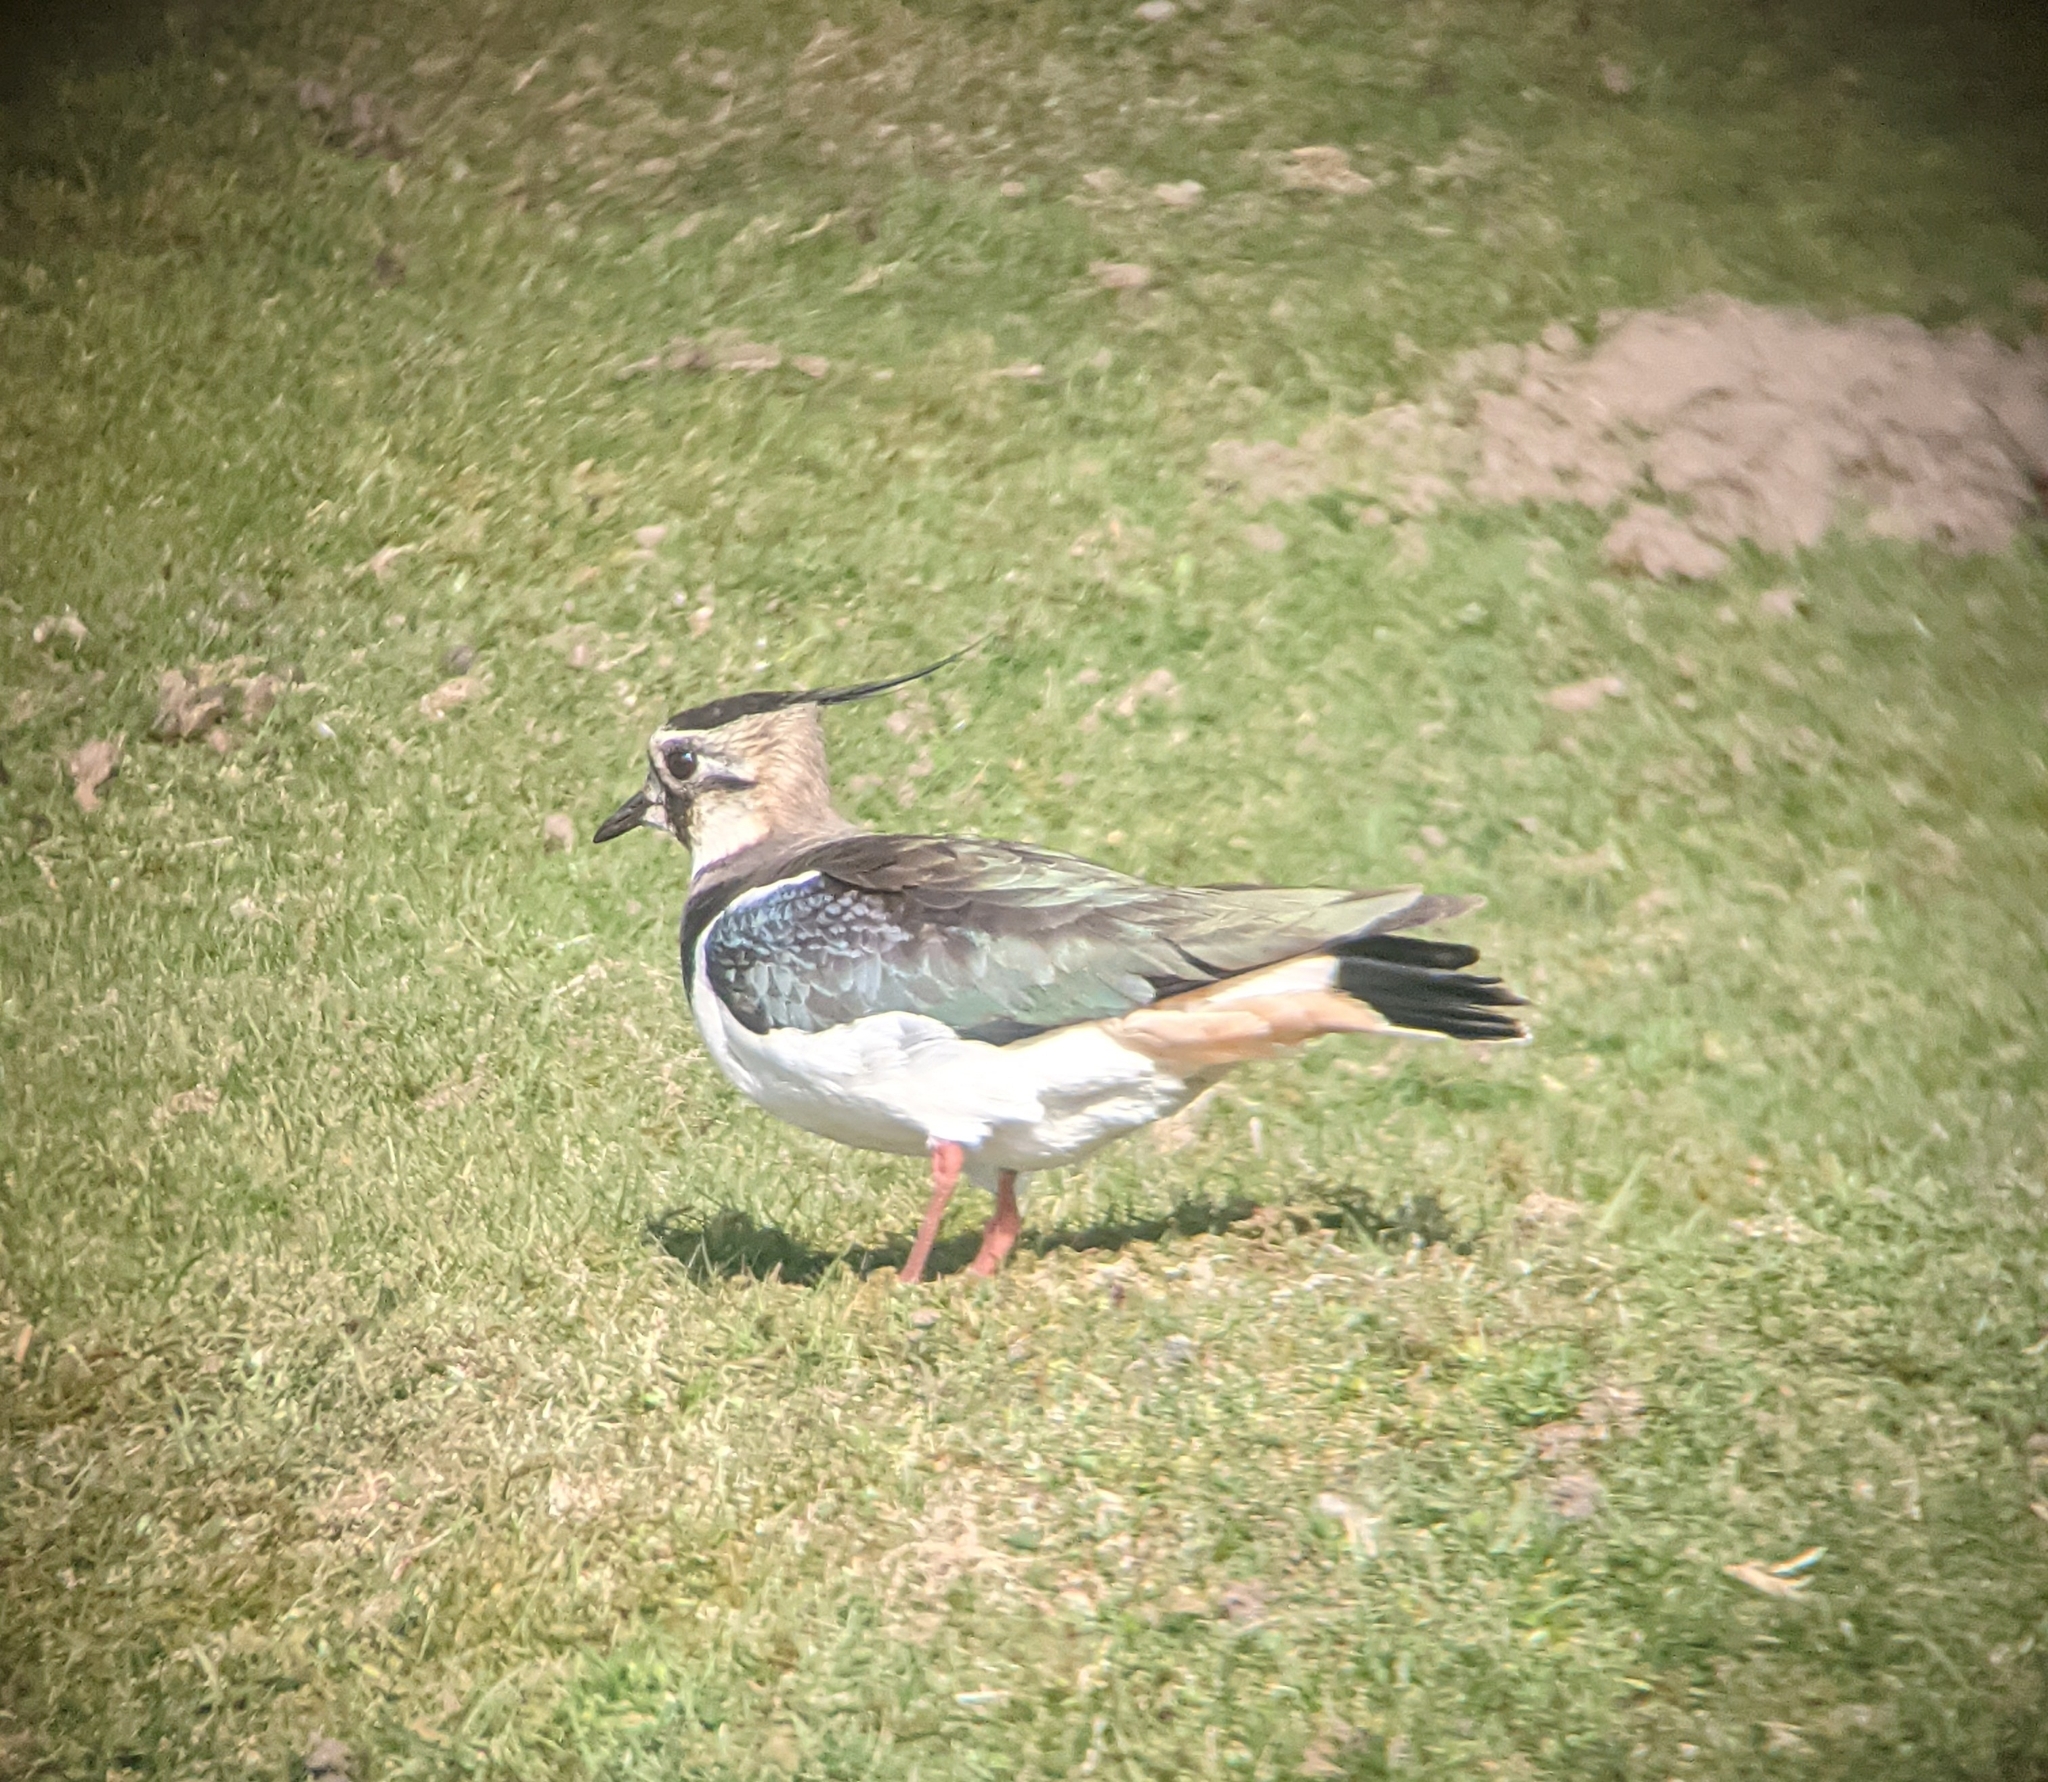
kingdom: Animalia
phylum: Chordata
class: Aves
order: Charadriiformes
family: Charadriidae
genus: Vanellus
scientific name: Vanellus vanellus
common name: Northern lapwing
